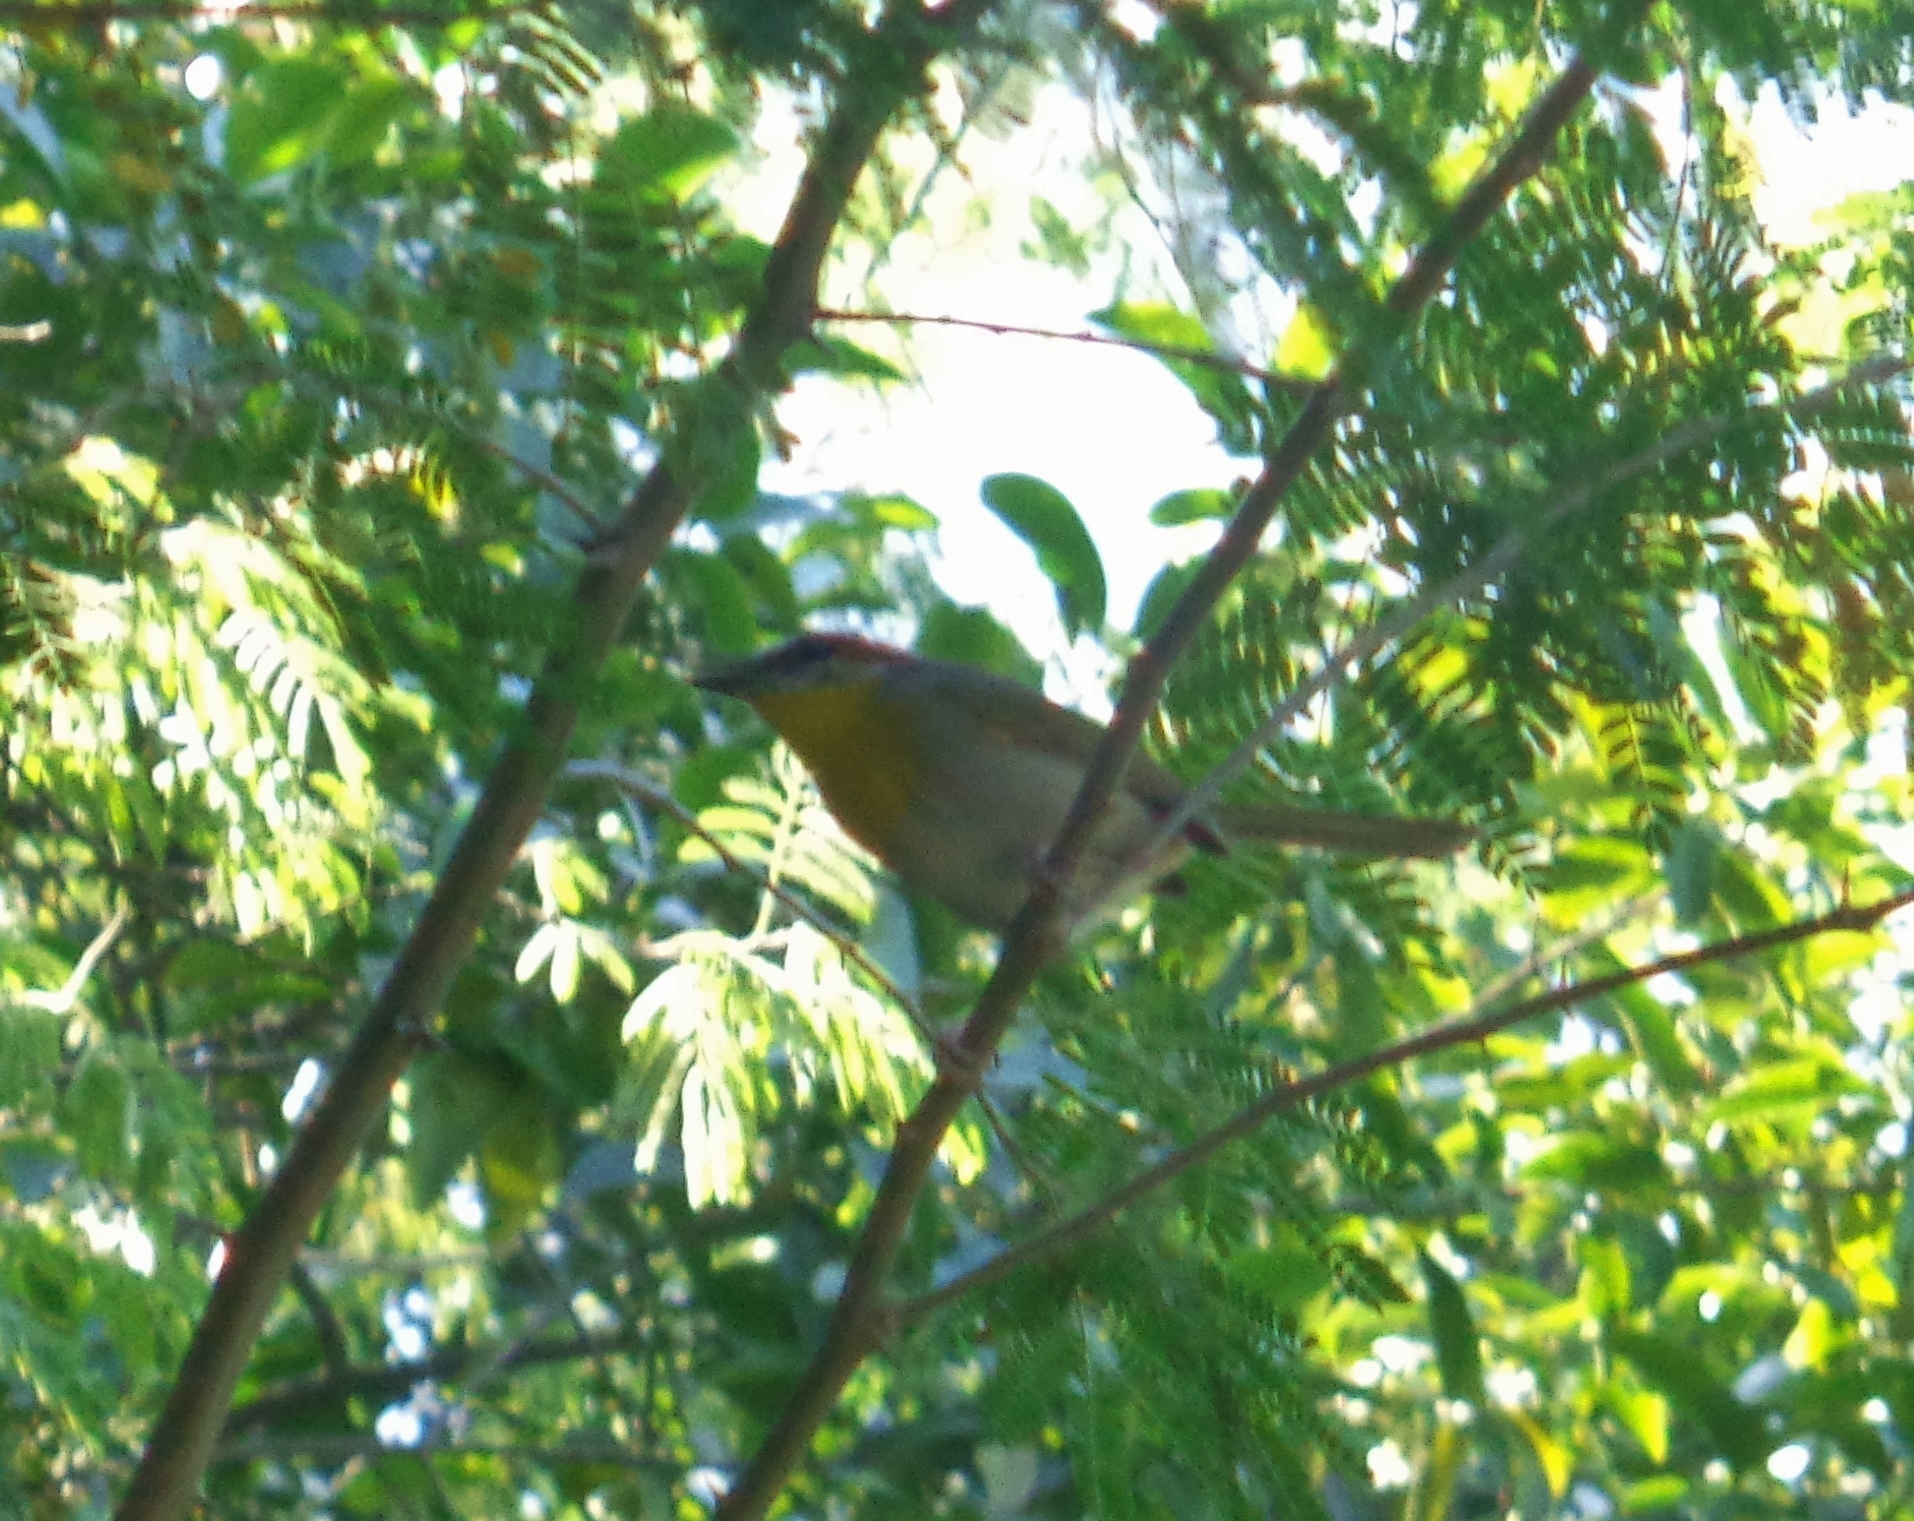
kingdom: Animalia
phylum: Chordata
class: Aves
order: Passeriformes
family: Parulidae
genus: Basileuterus
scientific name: Basileuterus rufifrons
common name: Rufous-capped warbler
